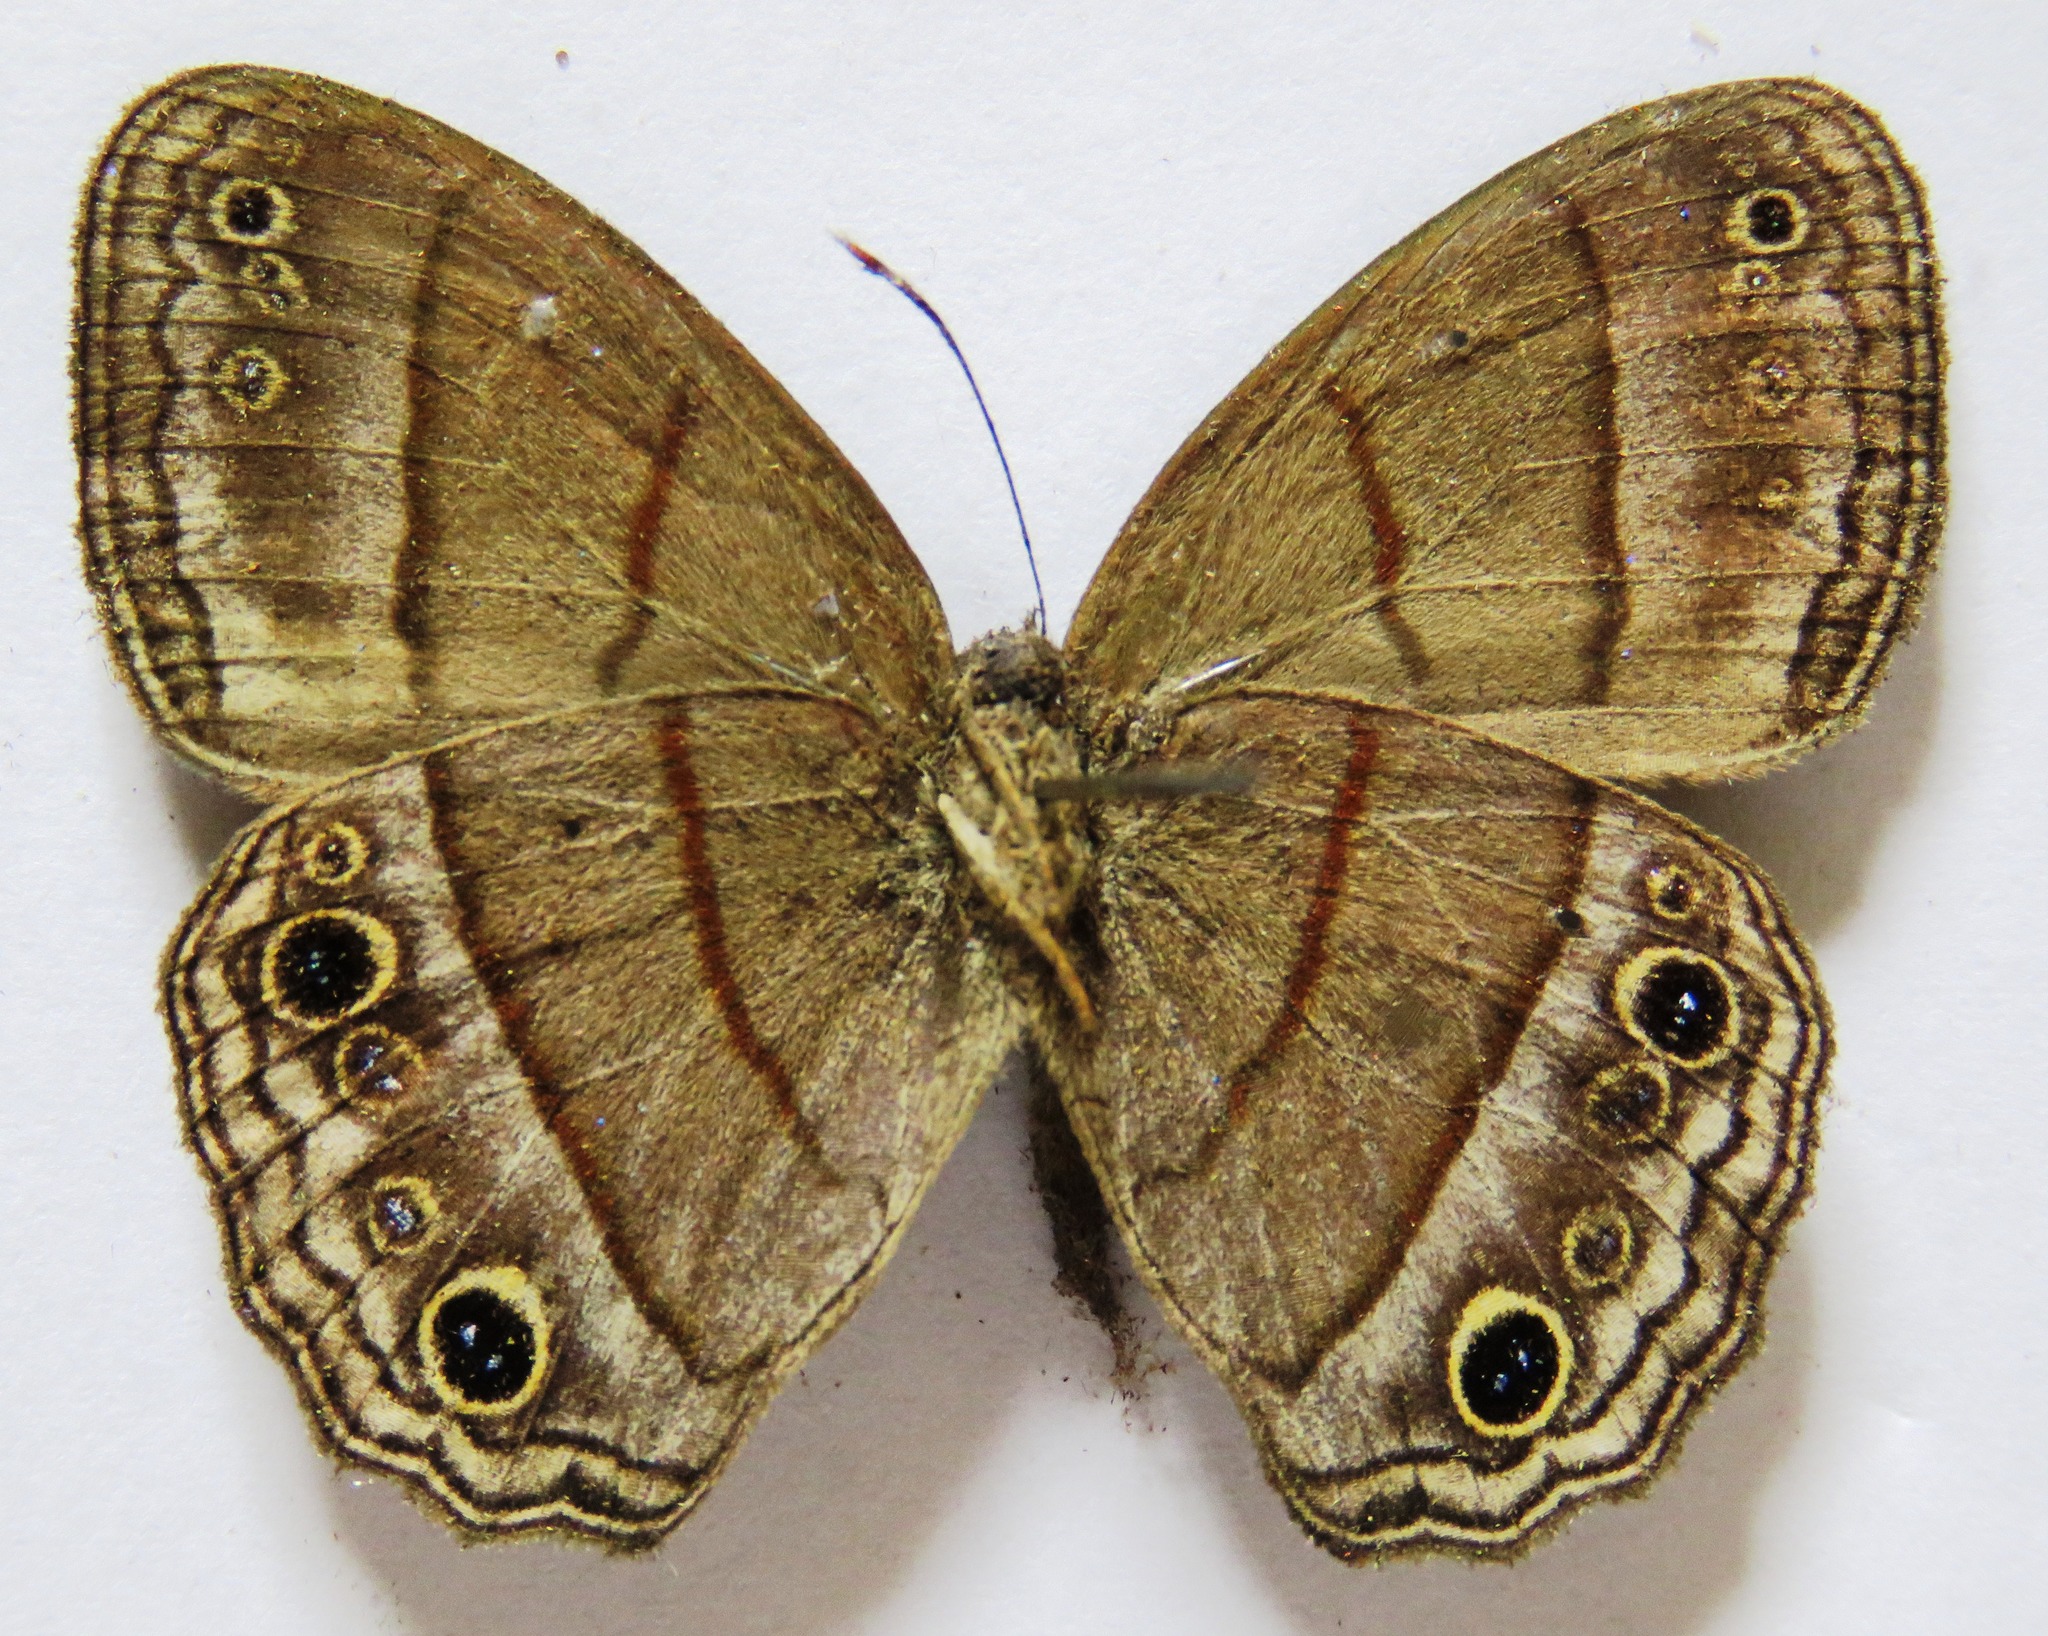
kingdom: Animalia
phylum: Arthropoda
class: Insecta
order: Lepidoptera
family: Nymphalidae
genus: Vareuptychia
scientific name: Vareuptychia similis
